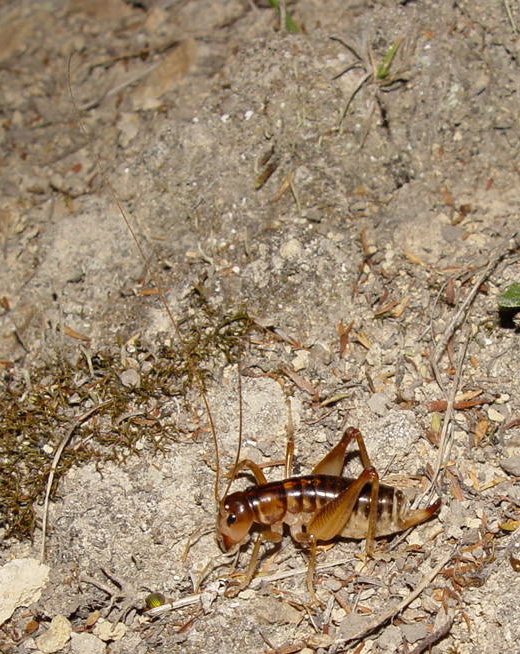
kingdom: Animalia
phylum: Arthropoda
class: Insecta
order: Orthoptera
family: Anostostomatidae
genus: Hemiandrus
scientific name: Hemiandrus maia
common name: Otago ground weta
